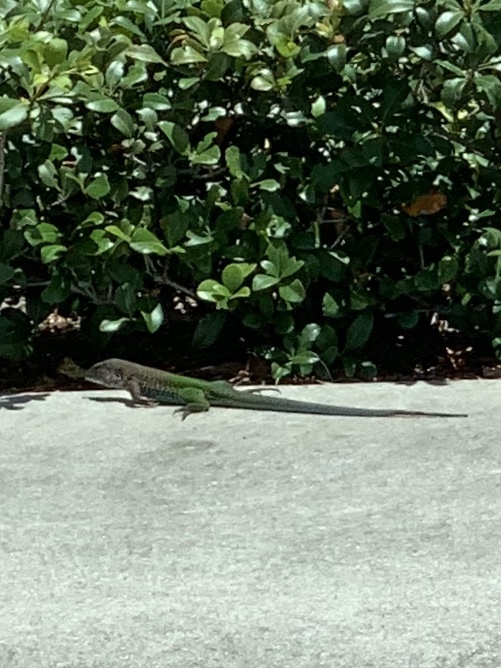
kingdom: Animalia
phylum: Chordata
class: Squamata
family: Teiidae
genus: Ameiva
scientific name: Ameiva ameiva
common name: Giant ameiva
